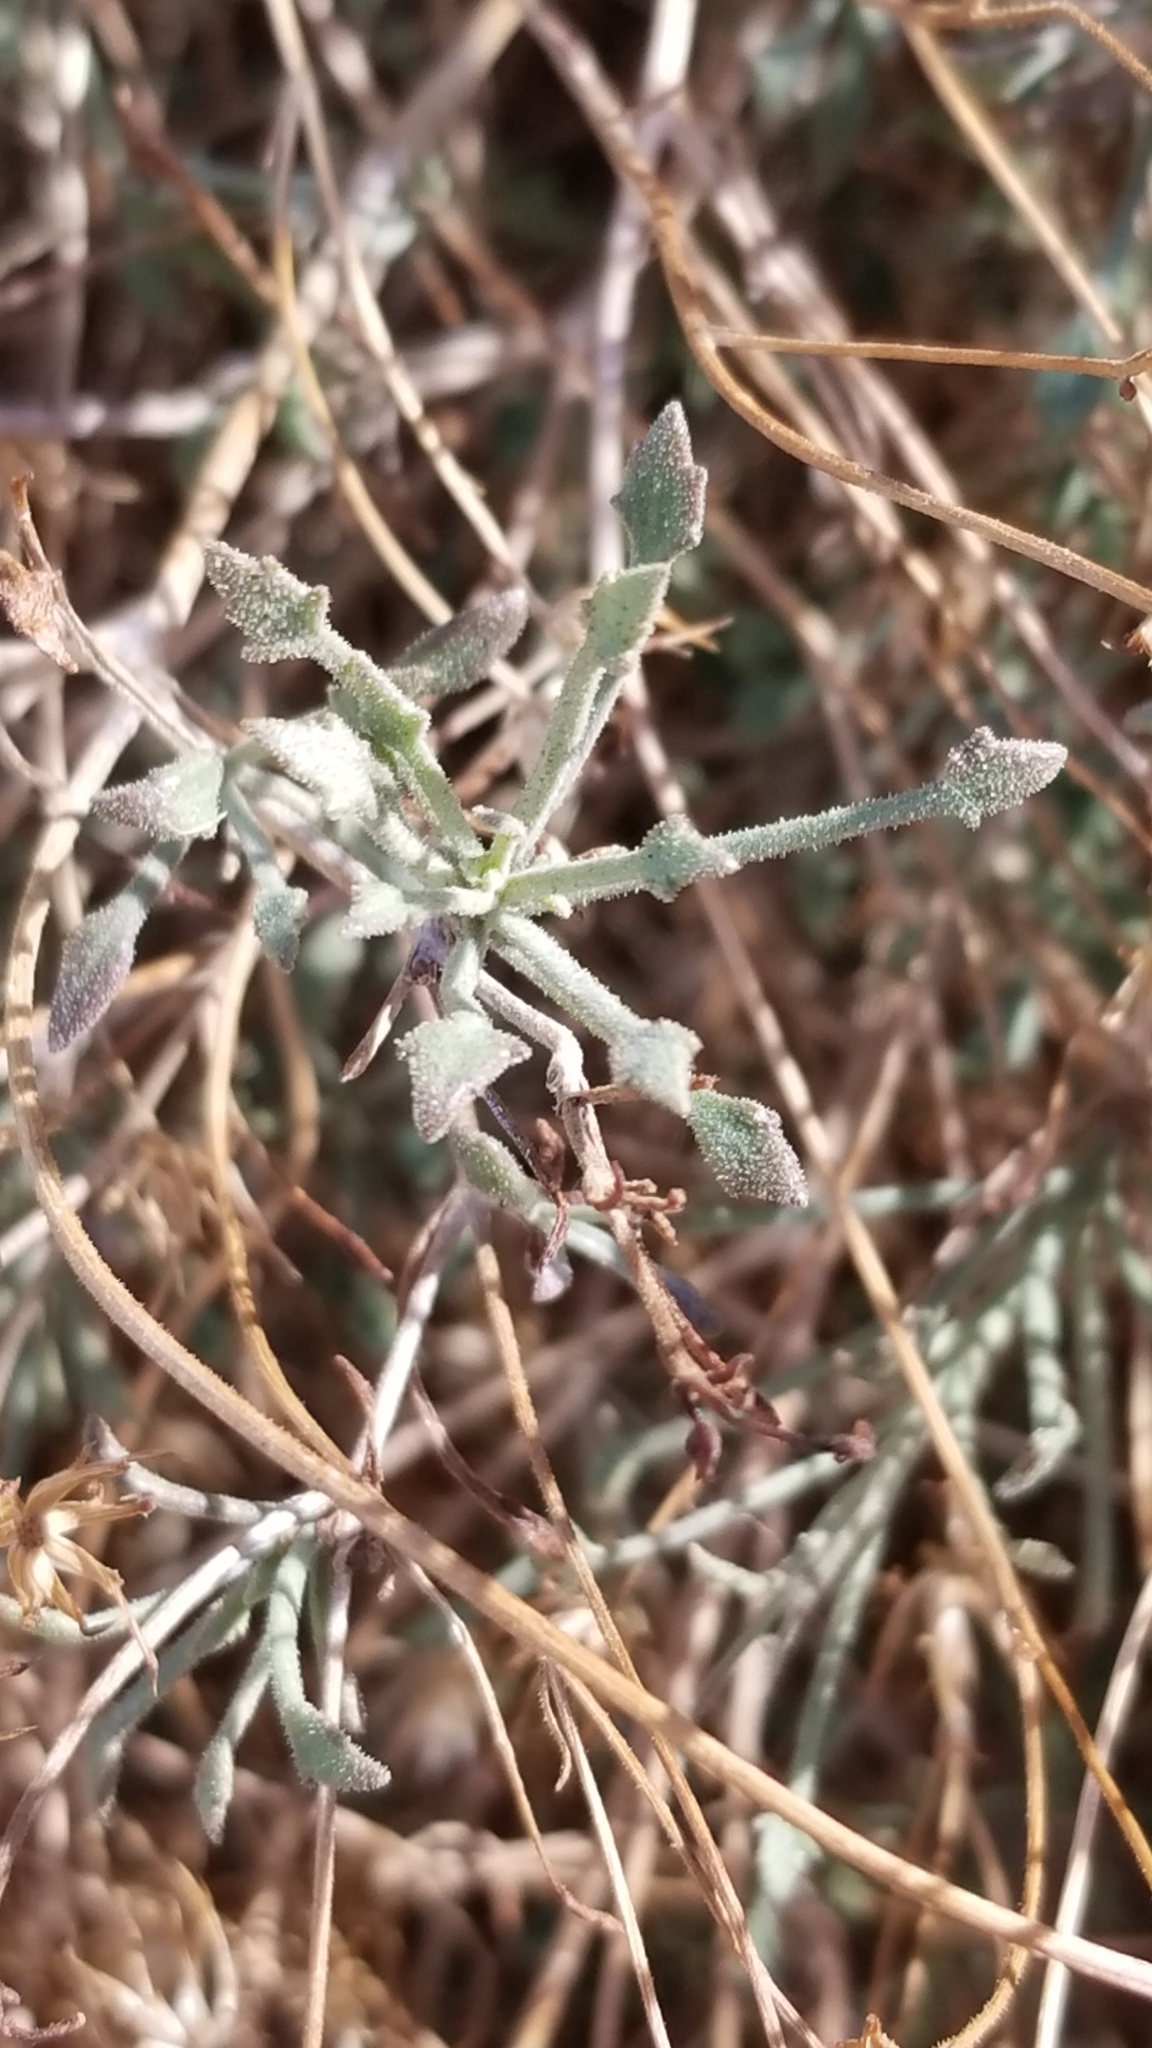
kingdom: Plantae
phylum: Tracheophyta
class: Magnoliopsida
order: Asterales
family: Asteraceae
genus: Pleurocoronis
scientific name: Pleurocoronis pluriseta
